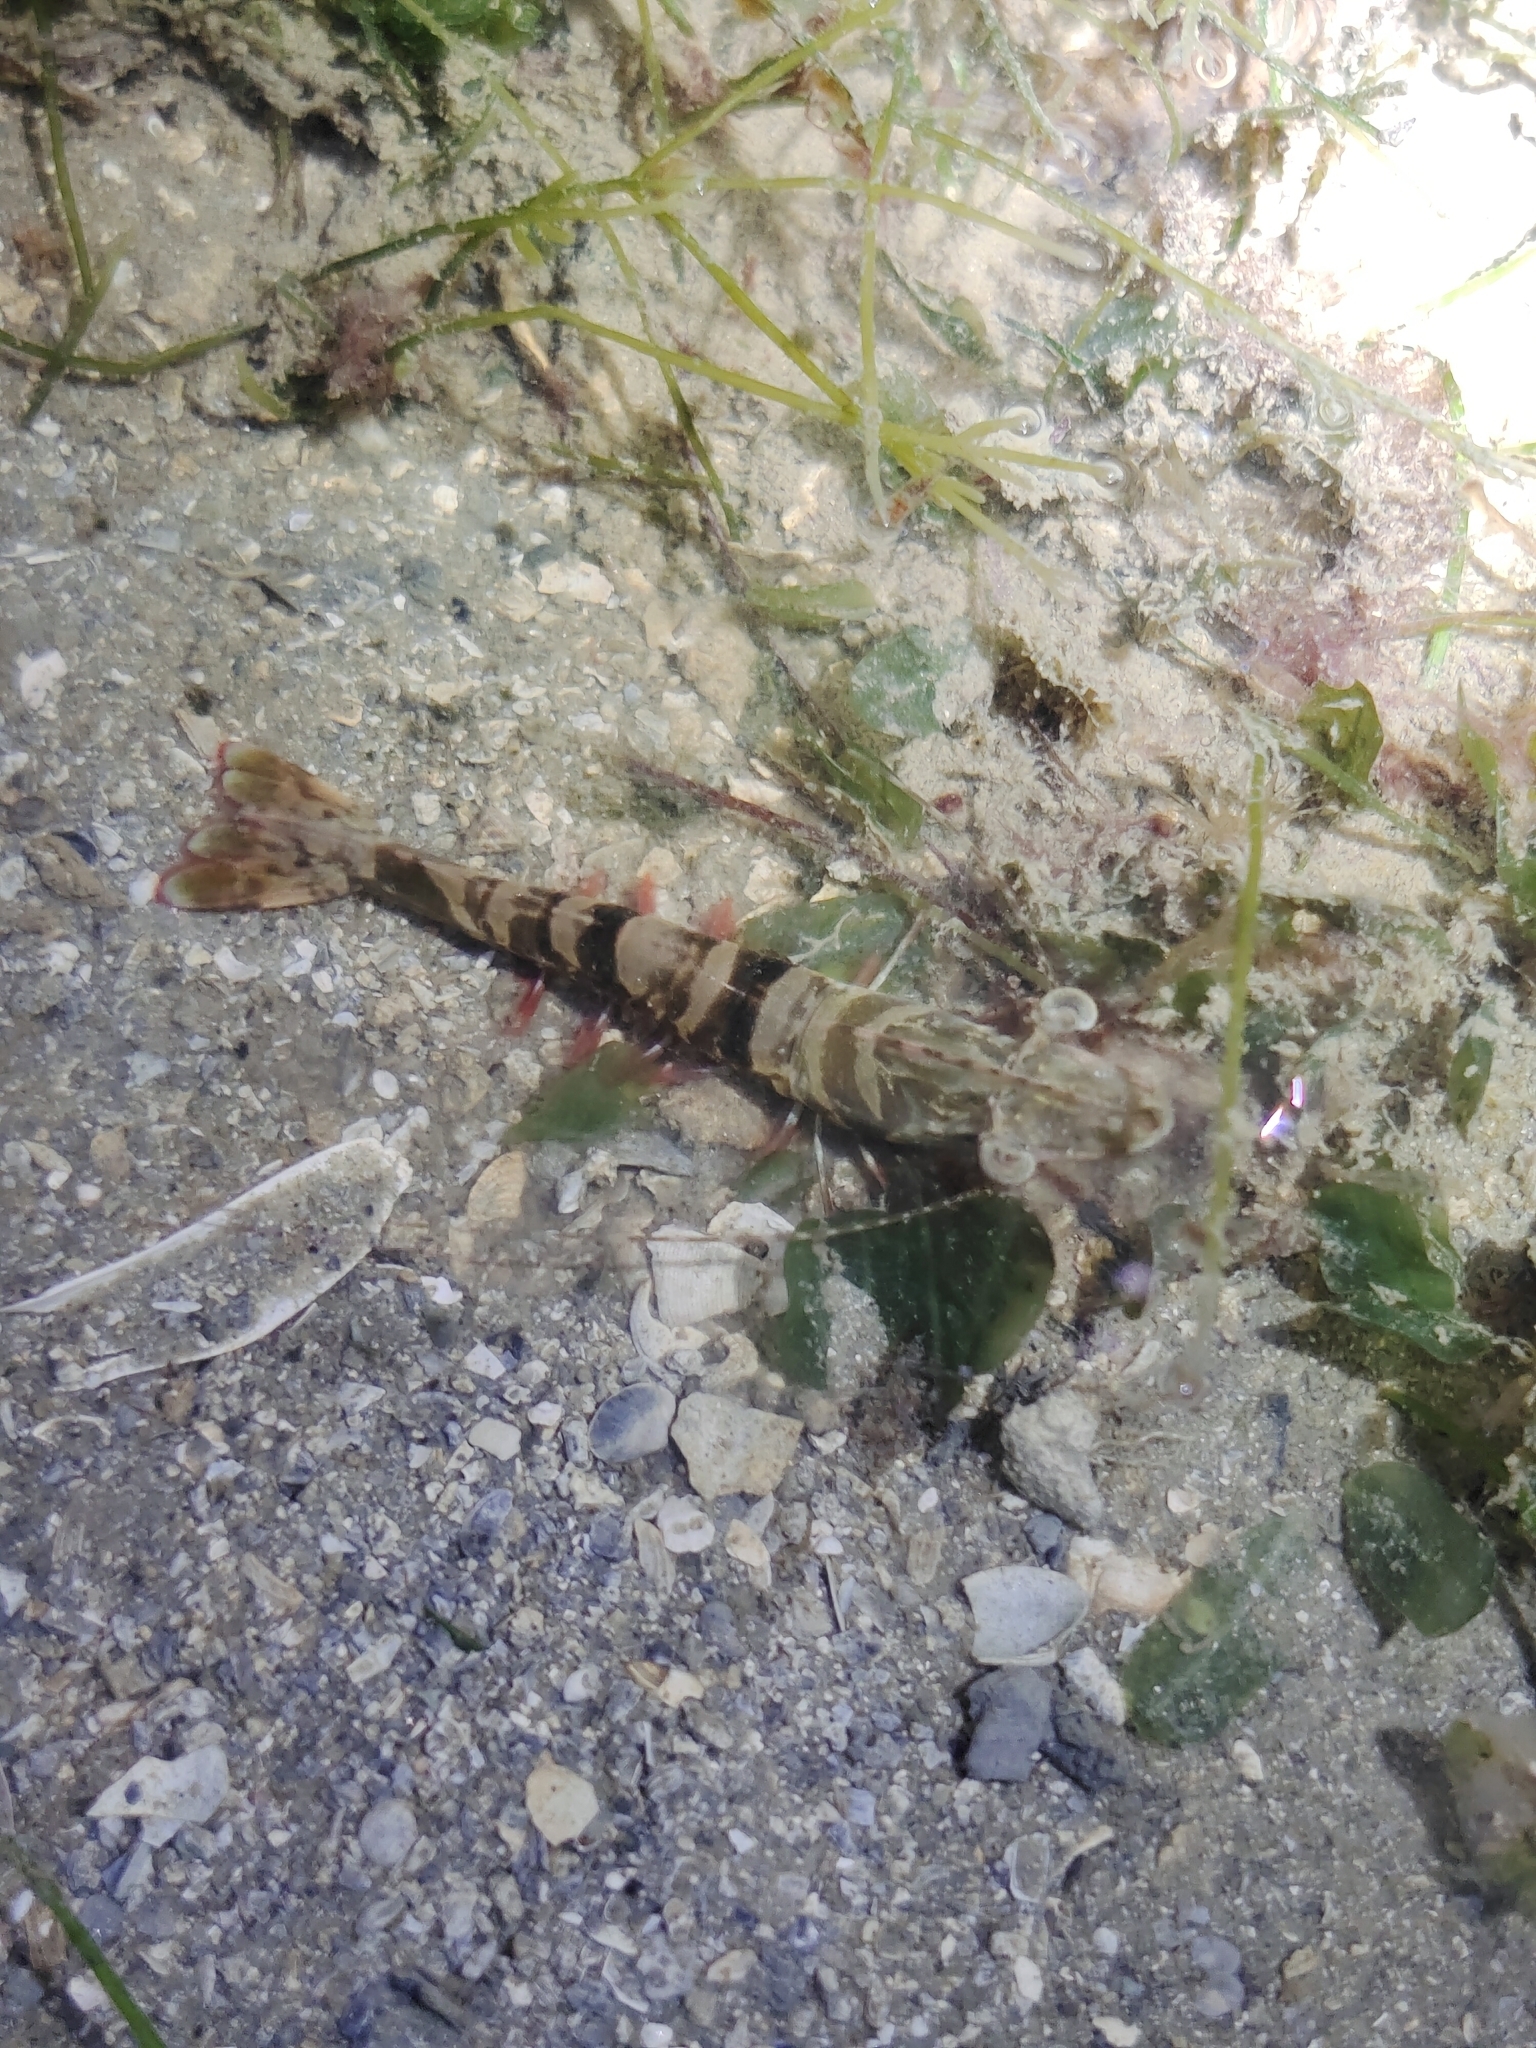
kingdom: Animalia
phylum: Arthropoda
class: Malacostraca
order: Decapoda
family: Penaeidae
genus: Penaeus
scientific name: Penaeus monodon
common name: Giant tiger prawn
